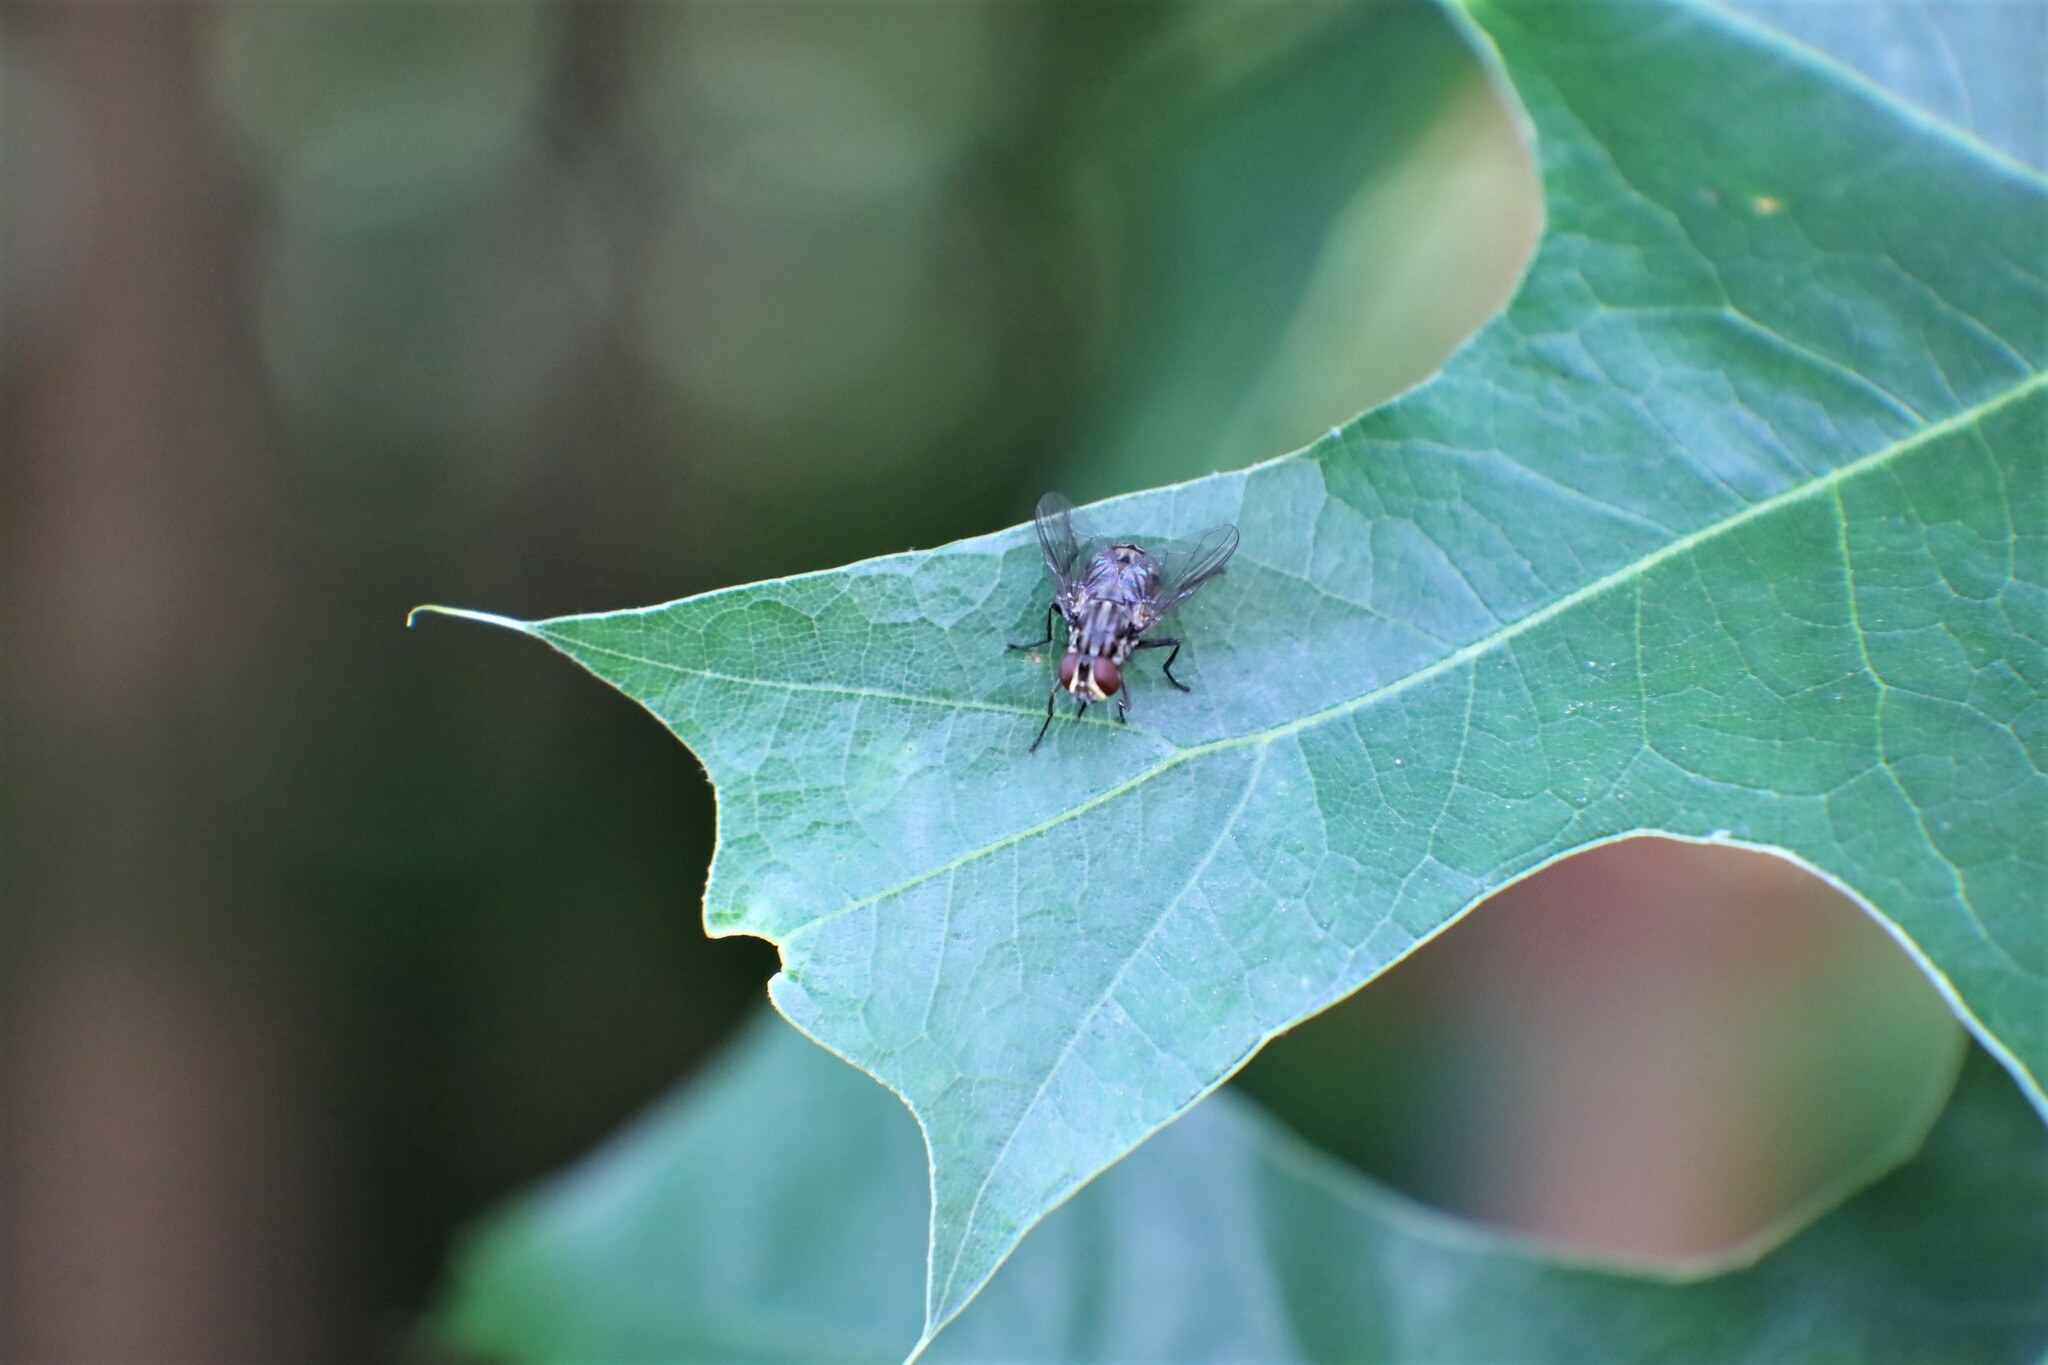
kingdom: Animalia
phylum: Arthropoda
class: Insecta
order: Diptera
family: Muscidae
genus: Stomoxys
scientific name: Stomoxys calcitrans
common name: Stable fly
